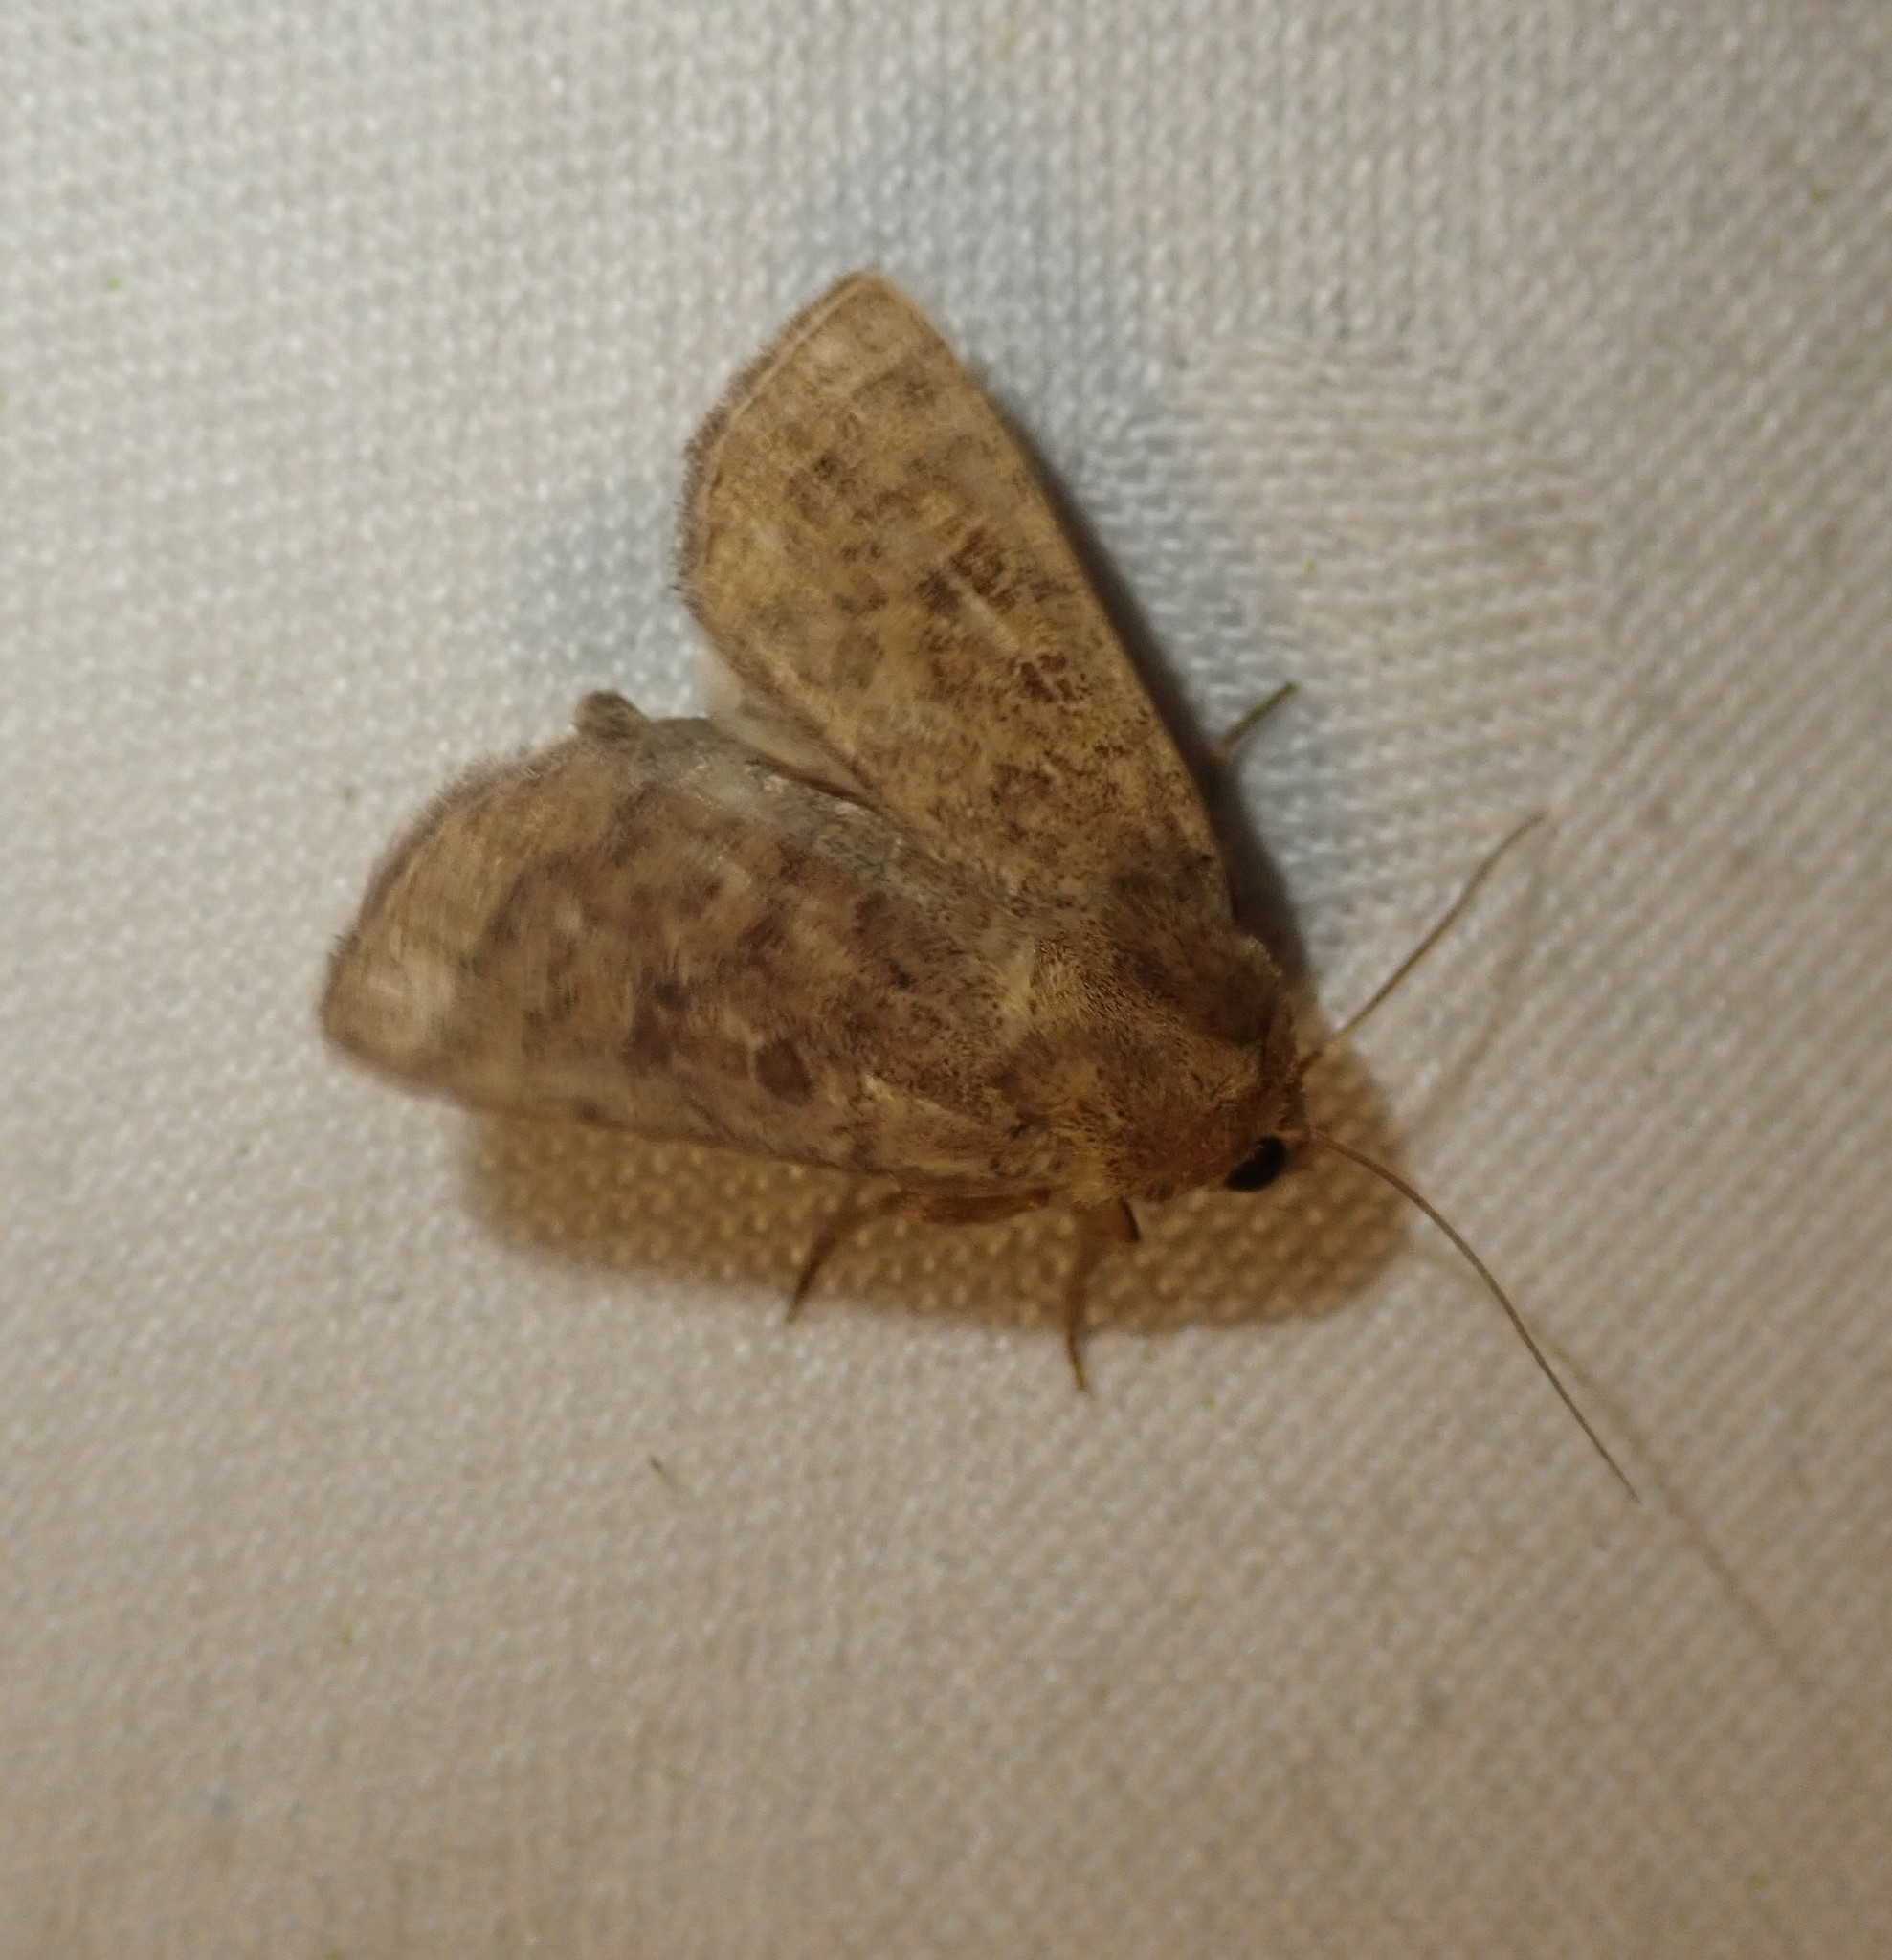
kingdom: Animalia
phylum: Arthropoda
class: Insecta
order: Lepidoptera
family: Noctuidae
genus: Hoplodrina
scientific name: Hoplodrina octogenaria
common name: Uncertain
